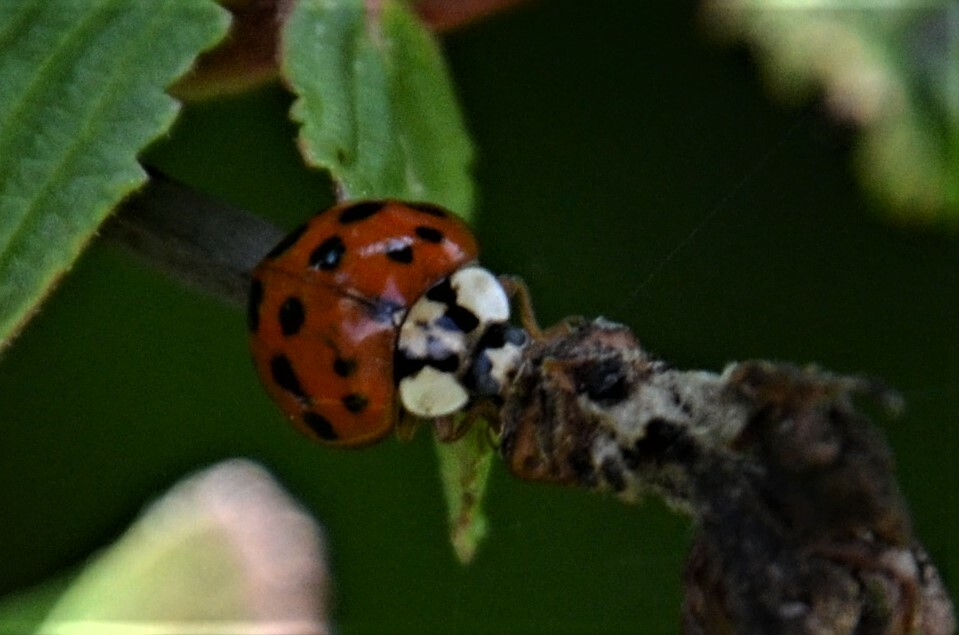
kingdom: Animalia
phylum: Arthropoda
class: Insecta
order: Coleoptera
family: Coccinellidae
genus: Harmonia
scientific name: Harmonia axyridis
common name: Harlequin ladybird
